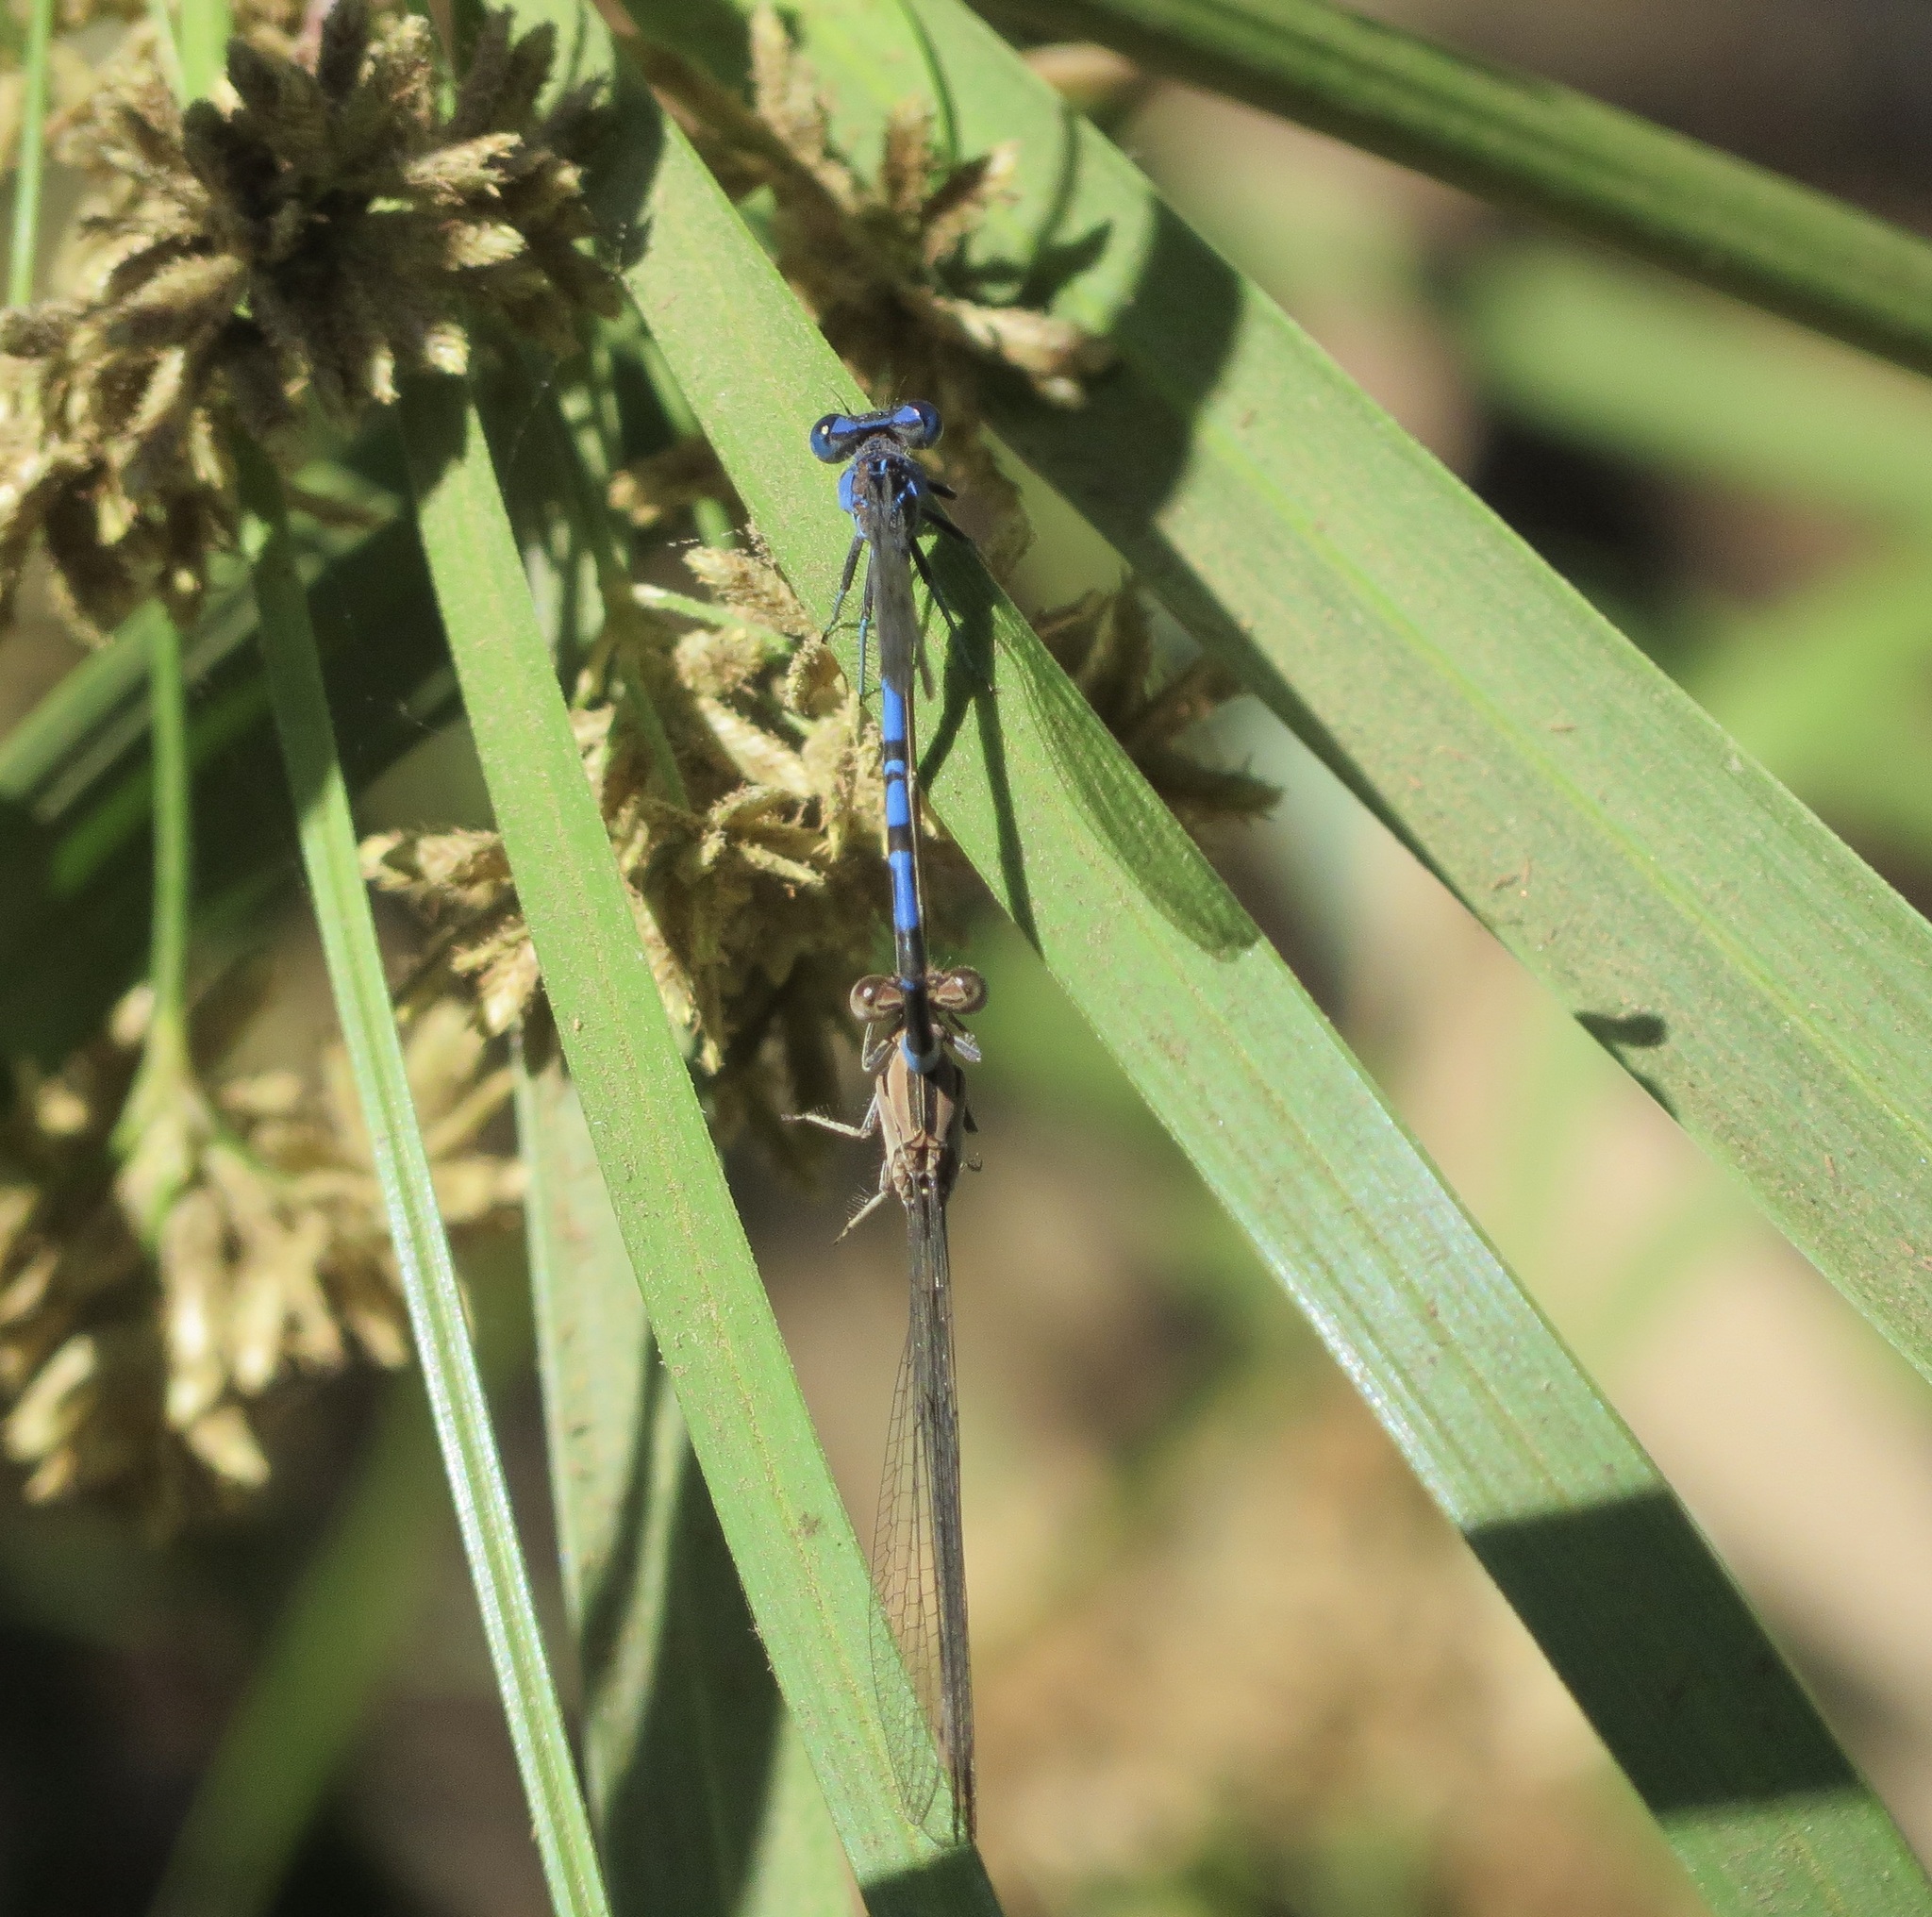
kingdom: Animalia
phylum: Arthropoda
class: Insecta
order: Odonata
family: Coenagrionidae
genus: Argia
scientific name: Argia vivida
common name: Vivid dancer
